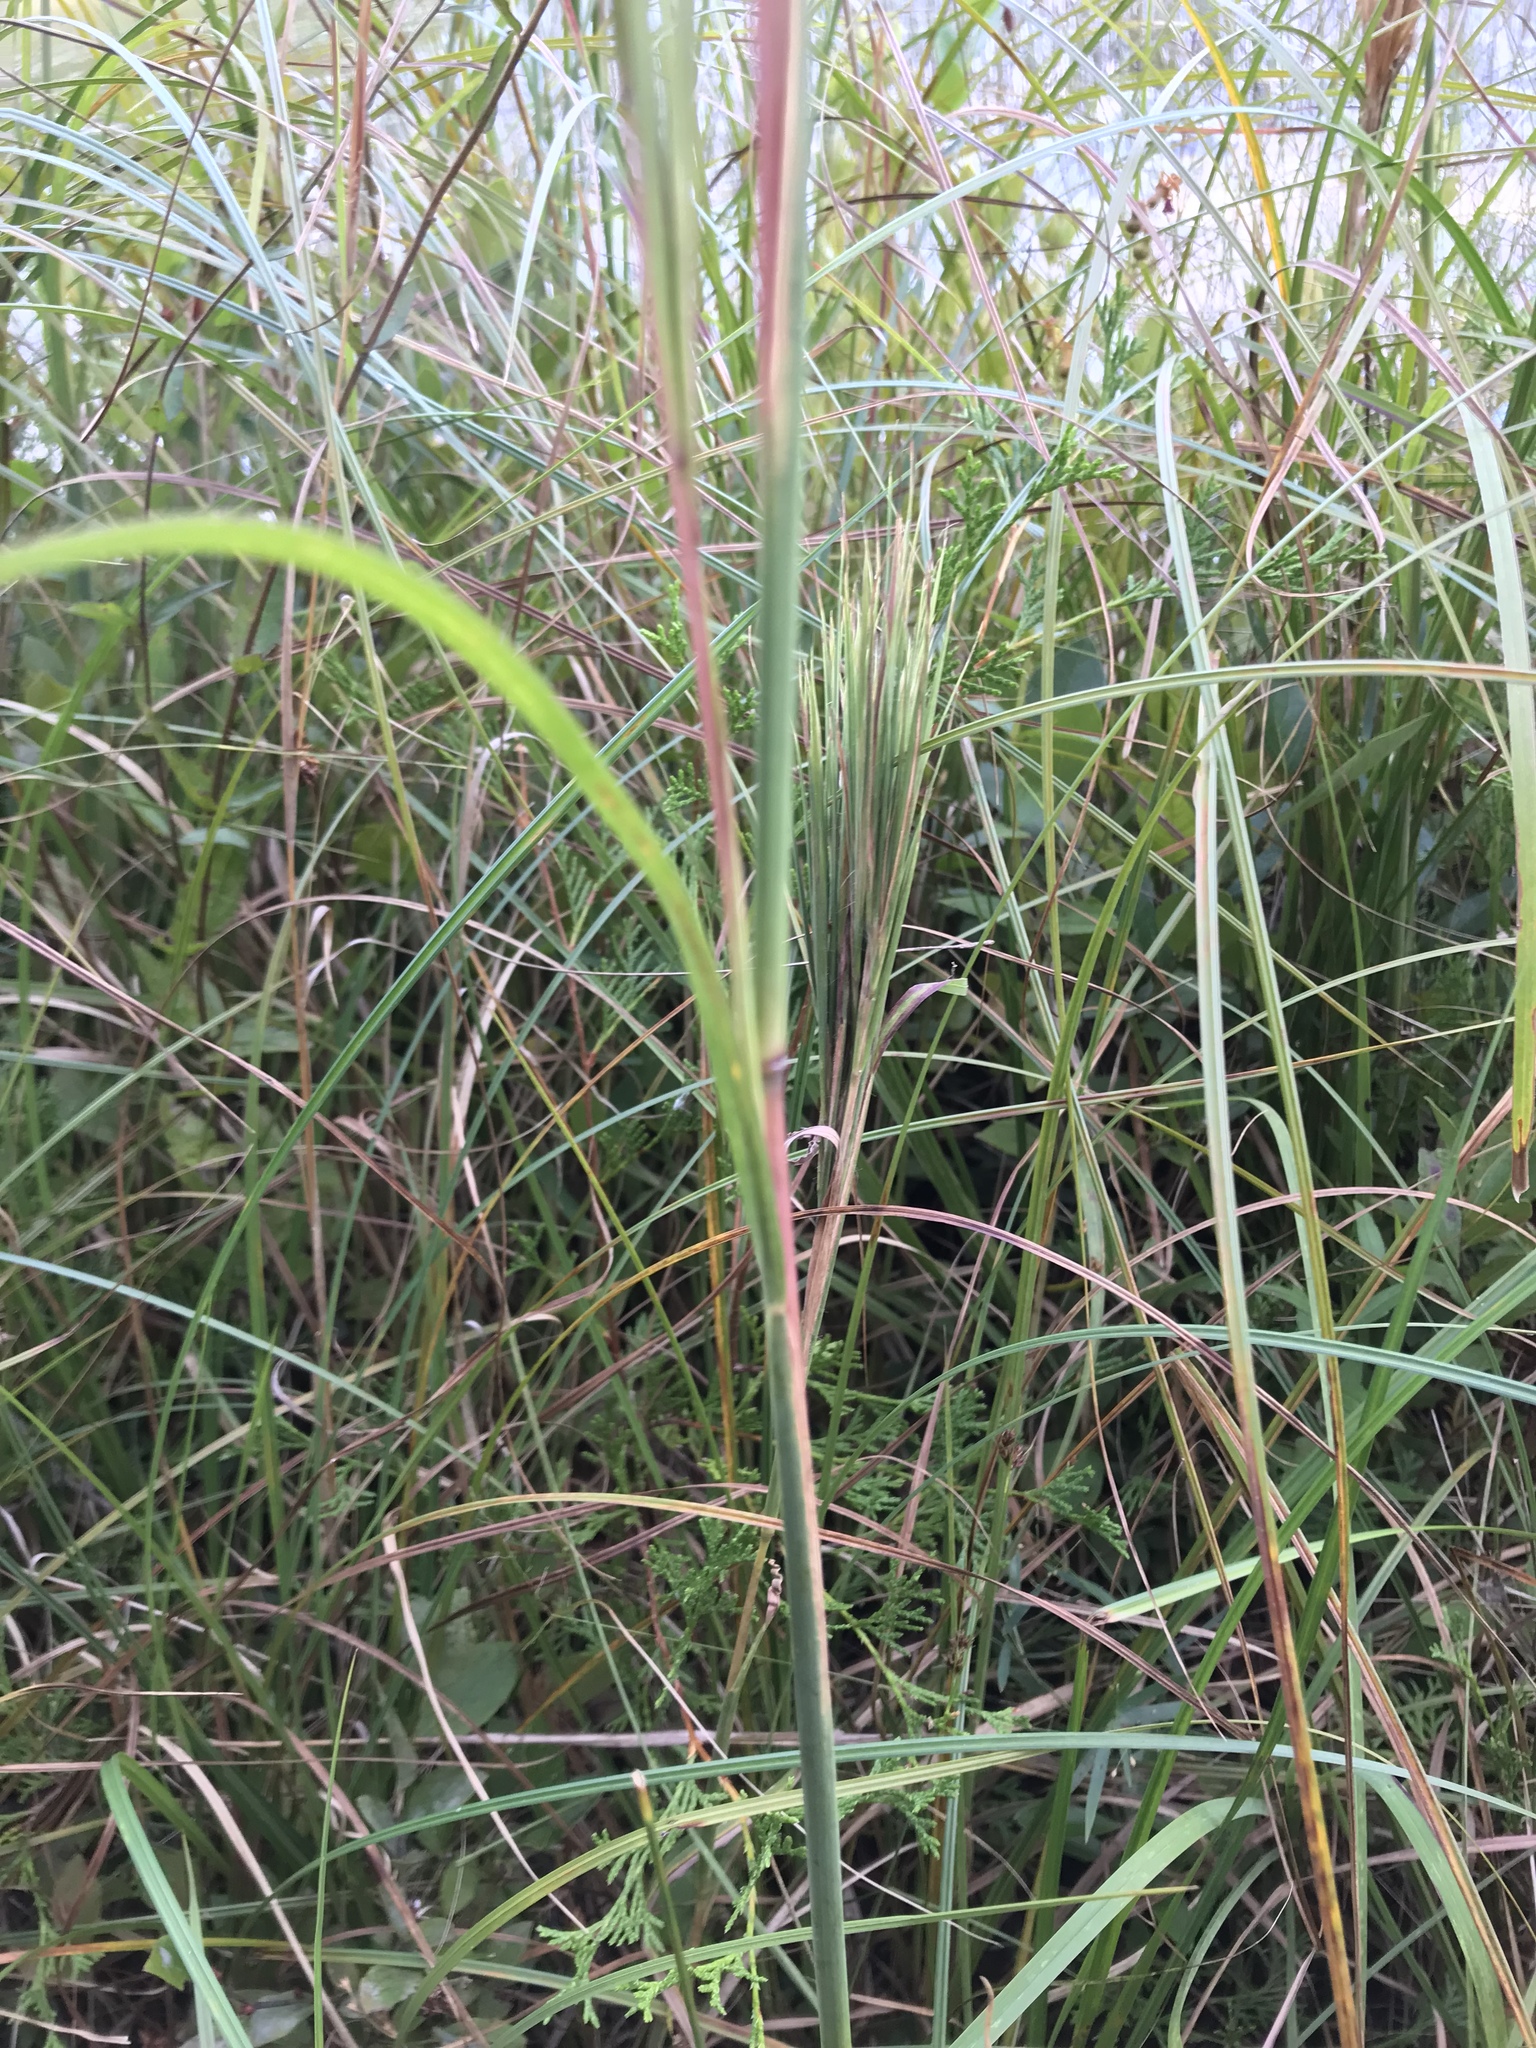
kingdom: Plantae
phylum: Tracheophyta
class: Liliopsida
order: Poales
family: Poaceae
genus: Andropogon
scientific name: Andropogon glomeratus
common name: Bushy beard grass
